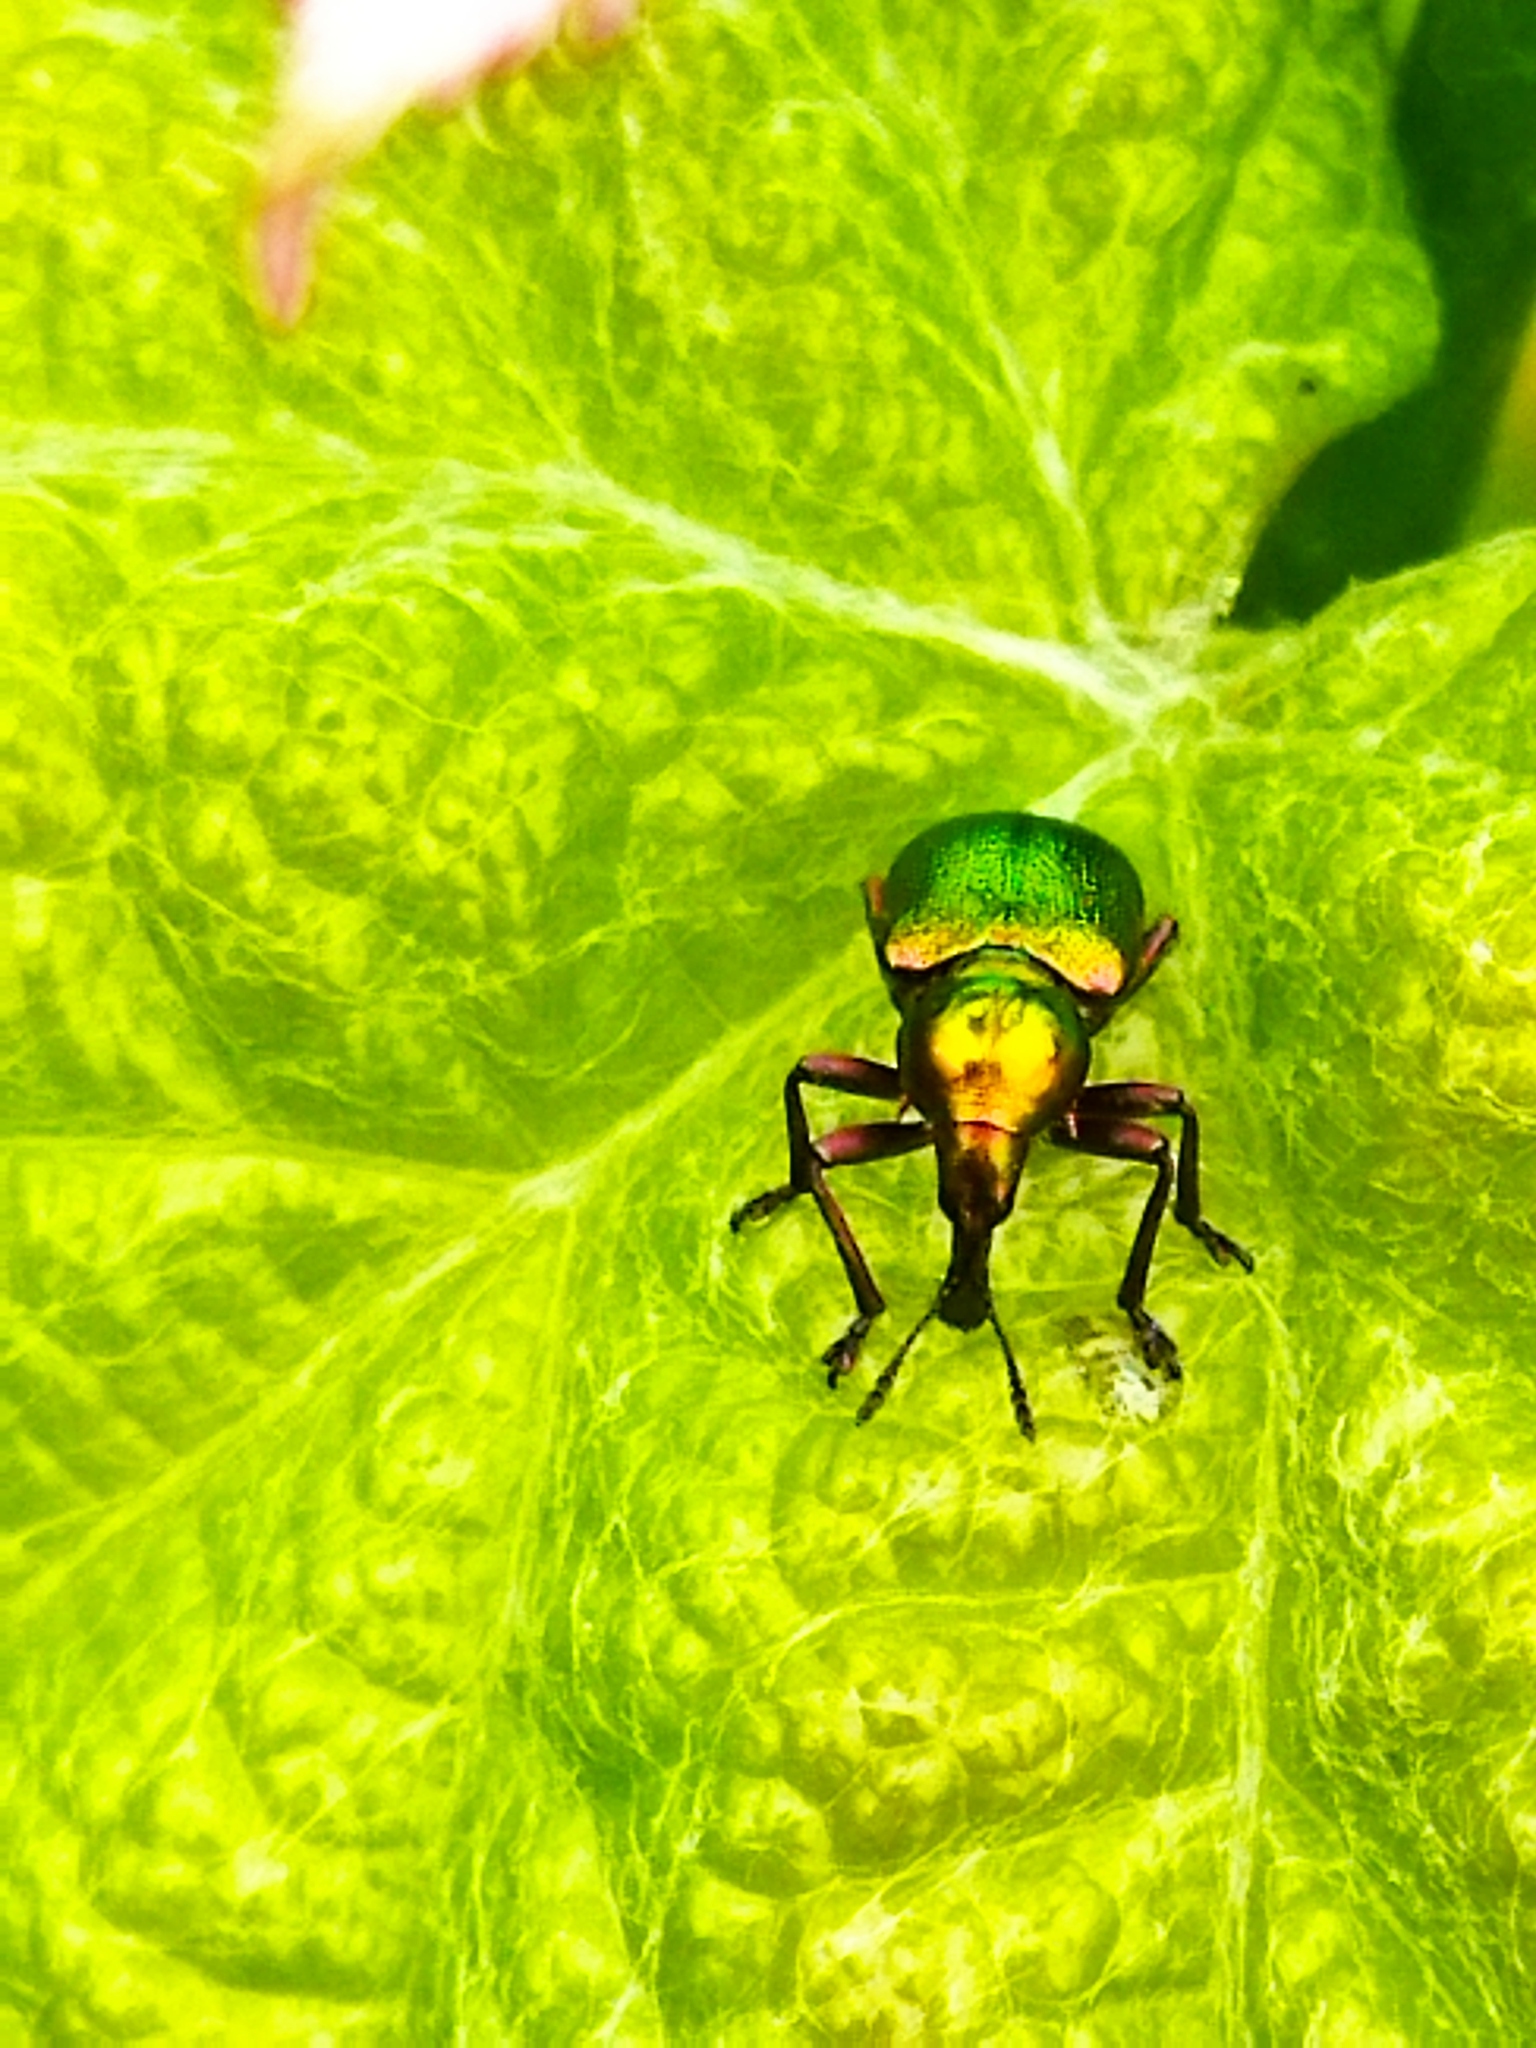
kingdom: Animalia
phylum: Arthropoda
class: Insecta
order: Coleoptera
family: Attelabidae
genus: Byctiscus
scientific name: Byctiscus betulae
